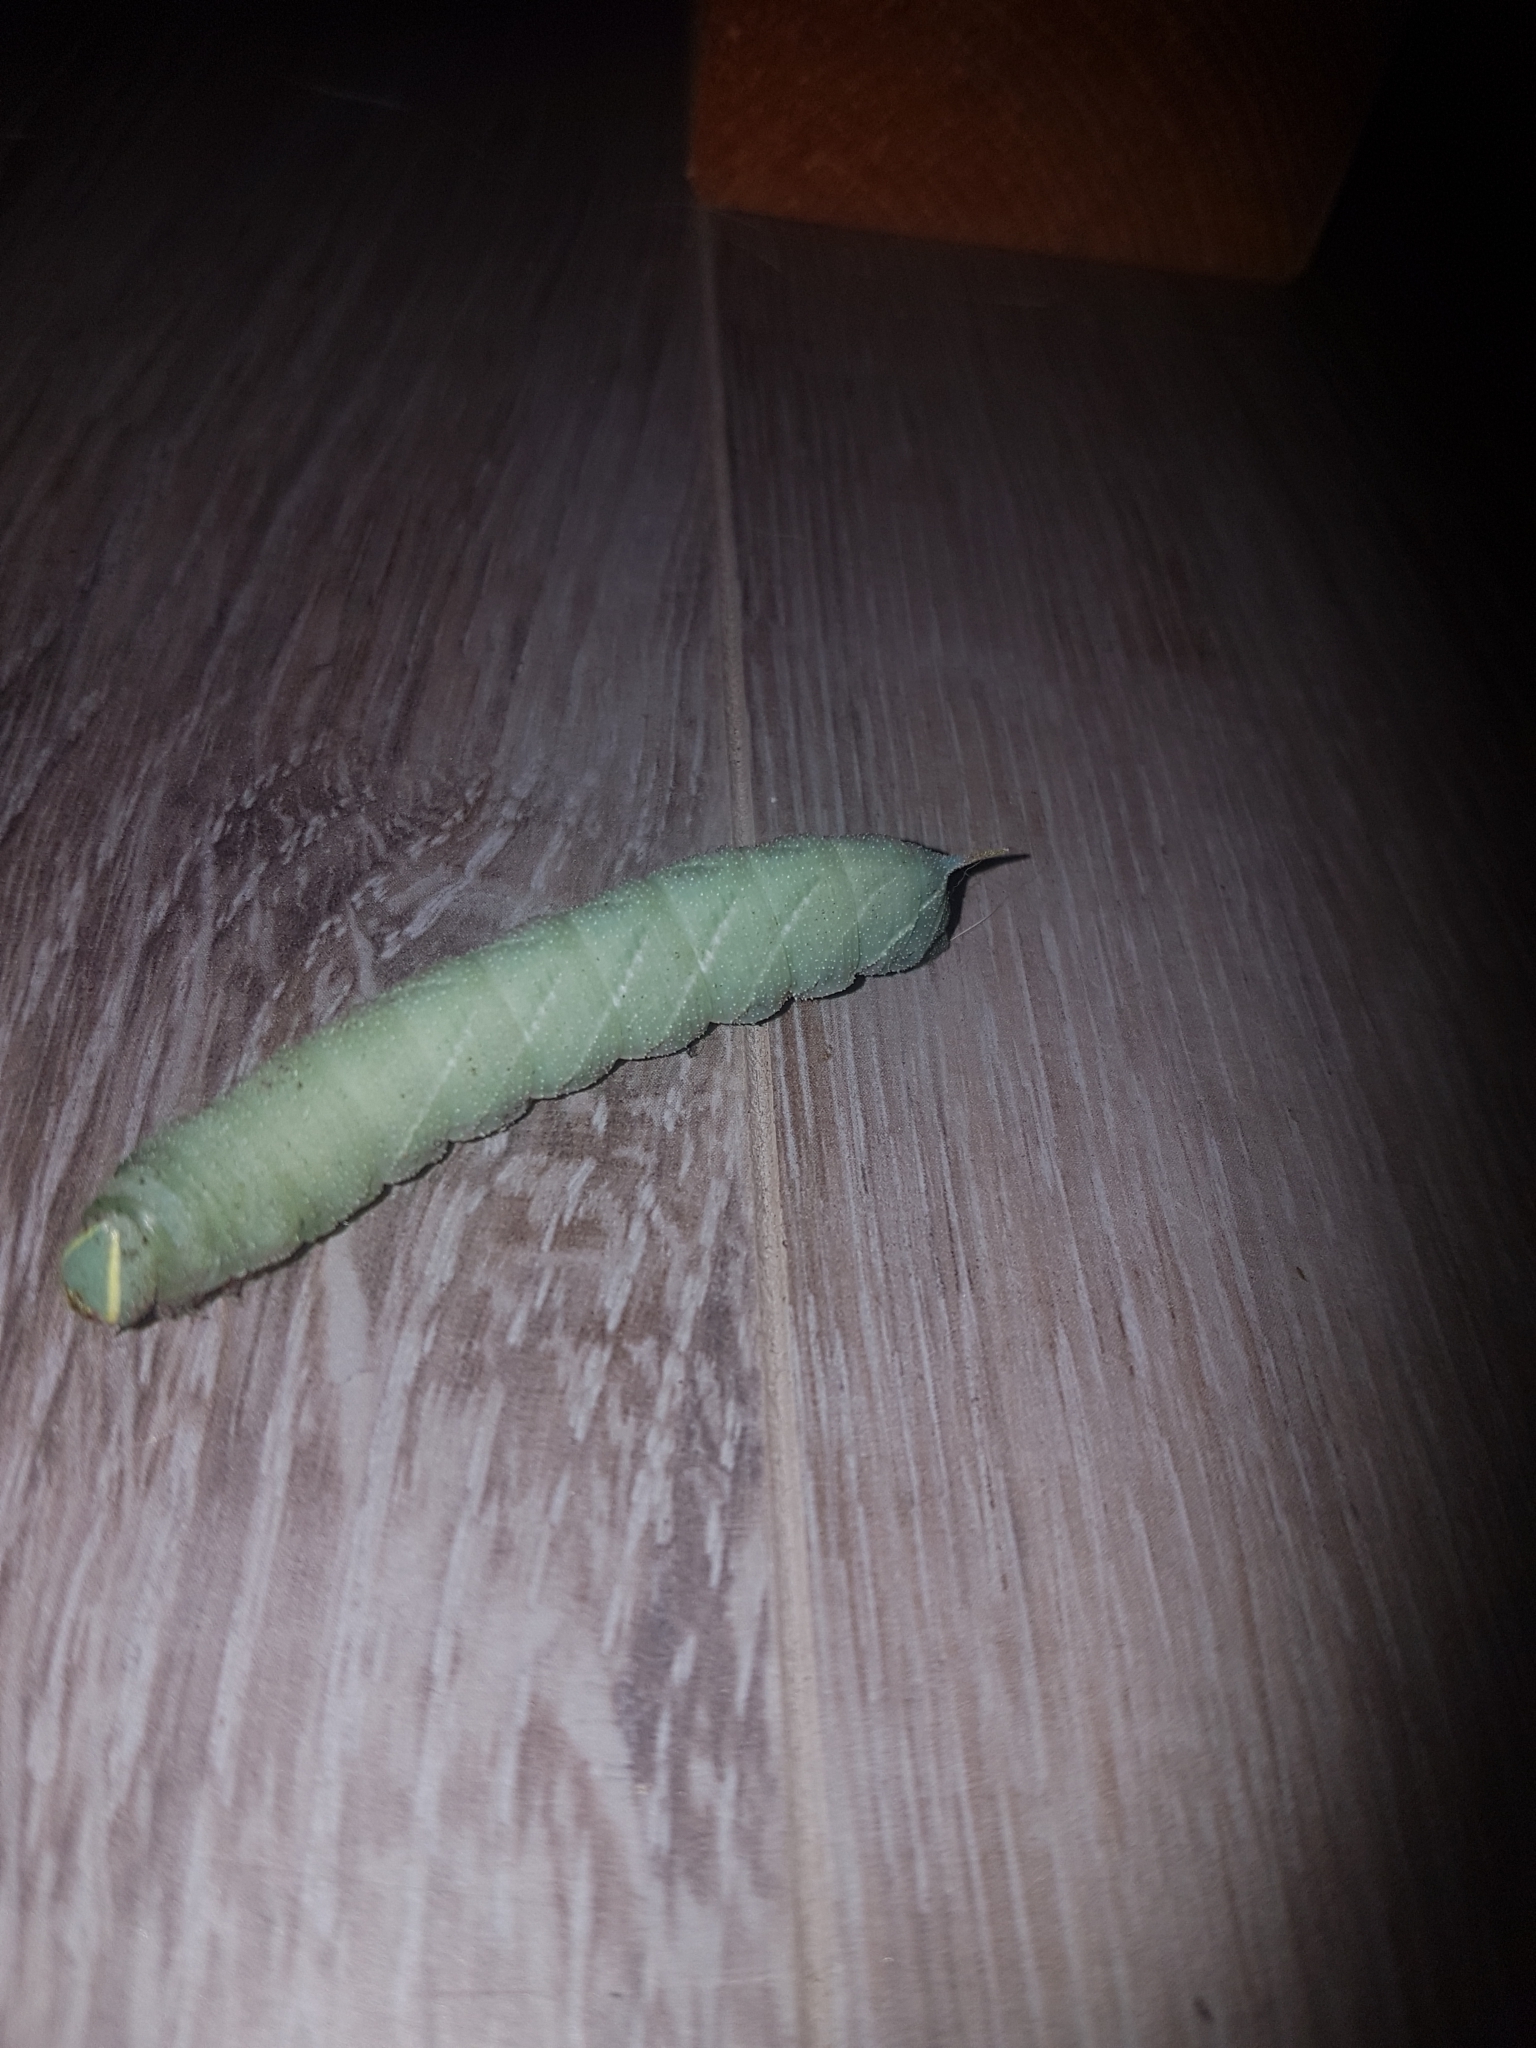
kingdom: Animalia
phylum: Arthropoda
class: Insecta
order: Lepidoptera
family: Sphingidae
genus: Laothoe
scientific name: Laothoe populi
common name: Poplar hawk-moth
